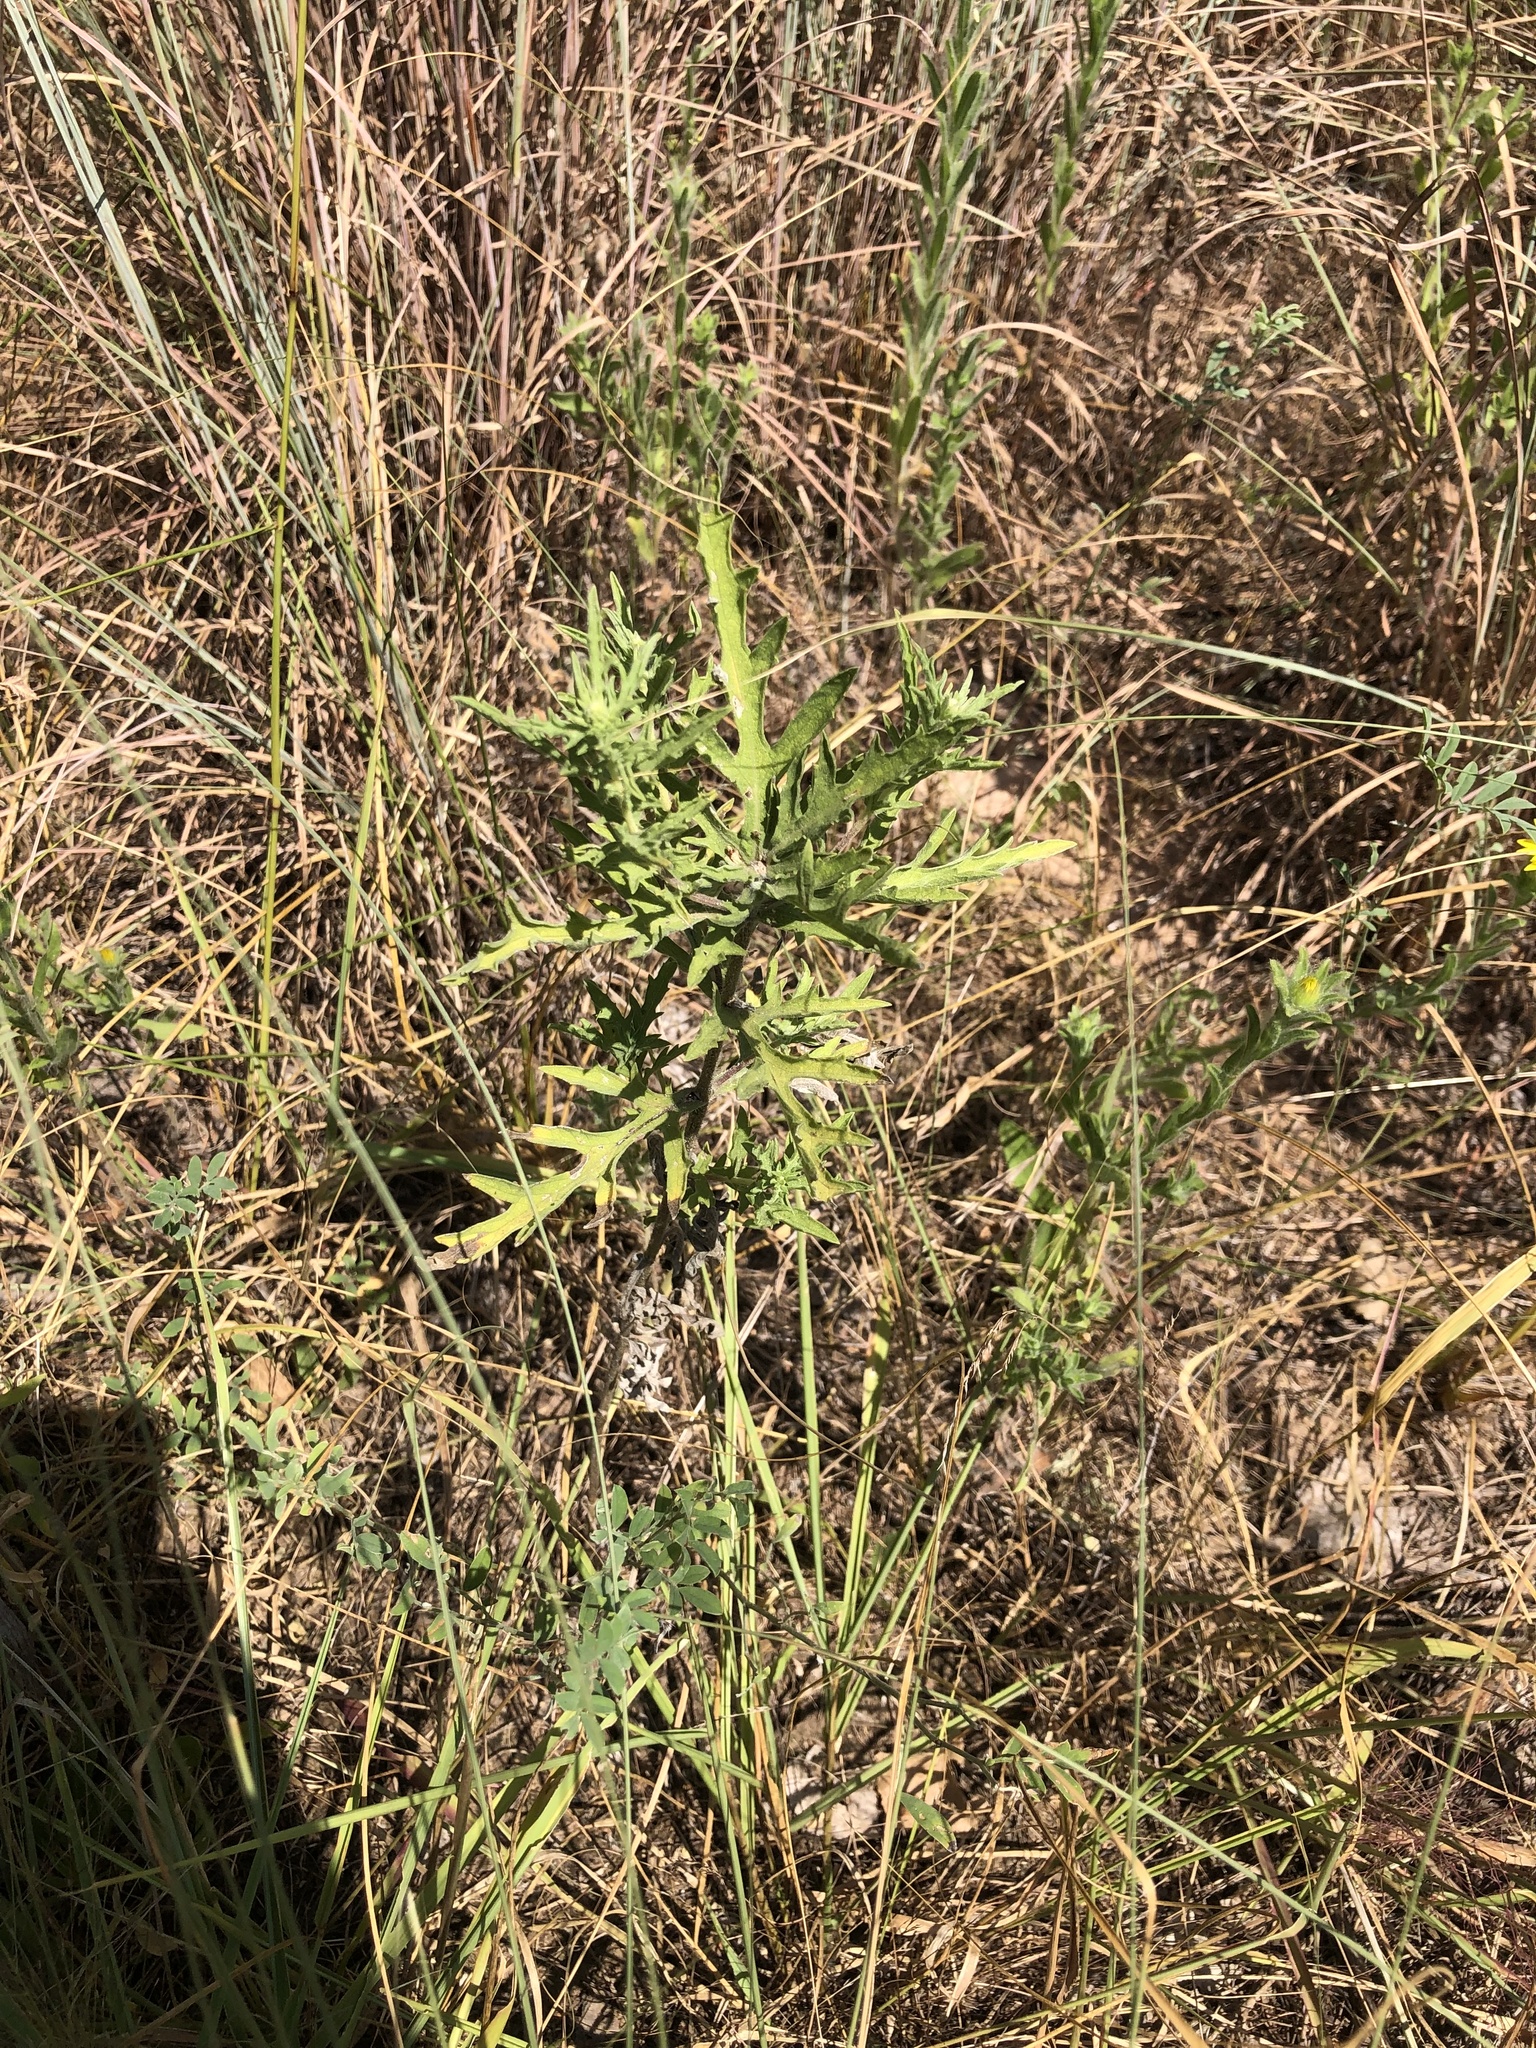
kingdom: Plantae
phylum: Tracheophyta
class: Magnoliopsida
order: Asterales
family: Asteraceae
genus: Ambrosia
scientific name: Ambrosia psilostachya
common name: Perennial ragweed
